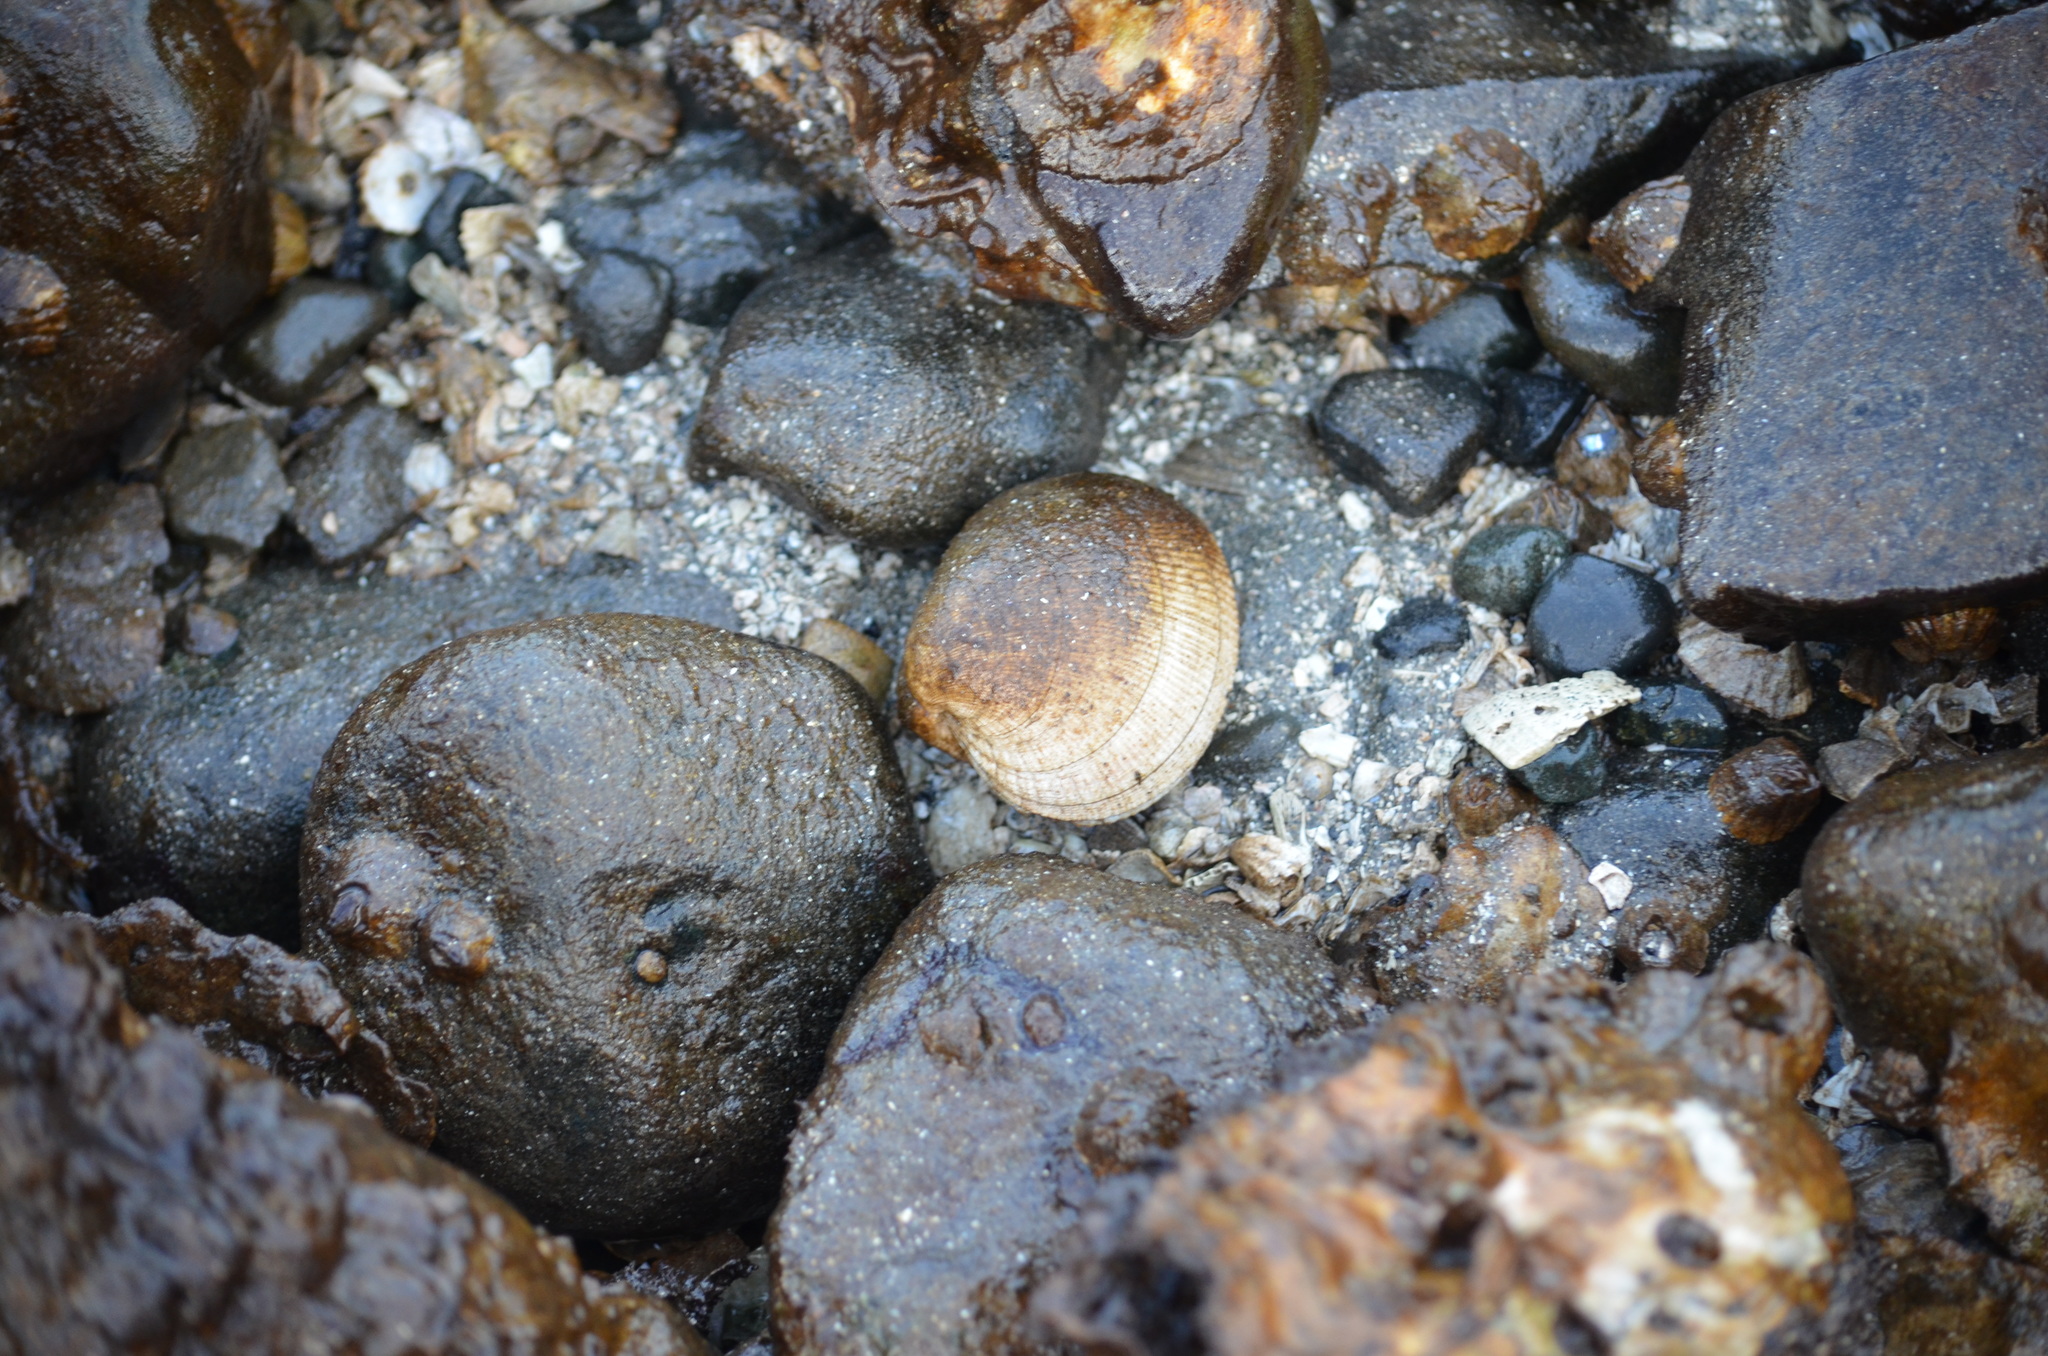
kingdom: Animalia
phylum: Mollusca
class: Bivalvia
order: Venerida
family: Veneridae
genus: Leukoma
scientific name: Leukoma staminea
